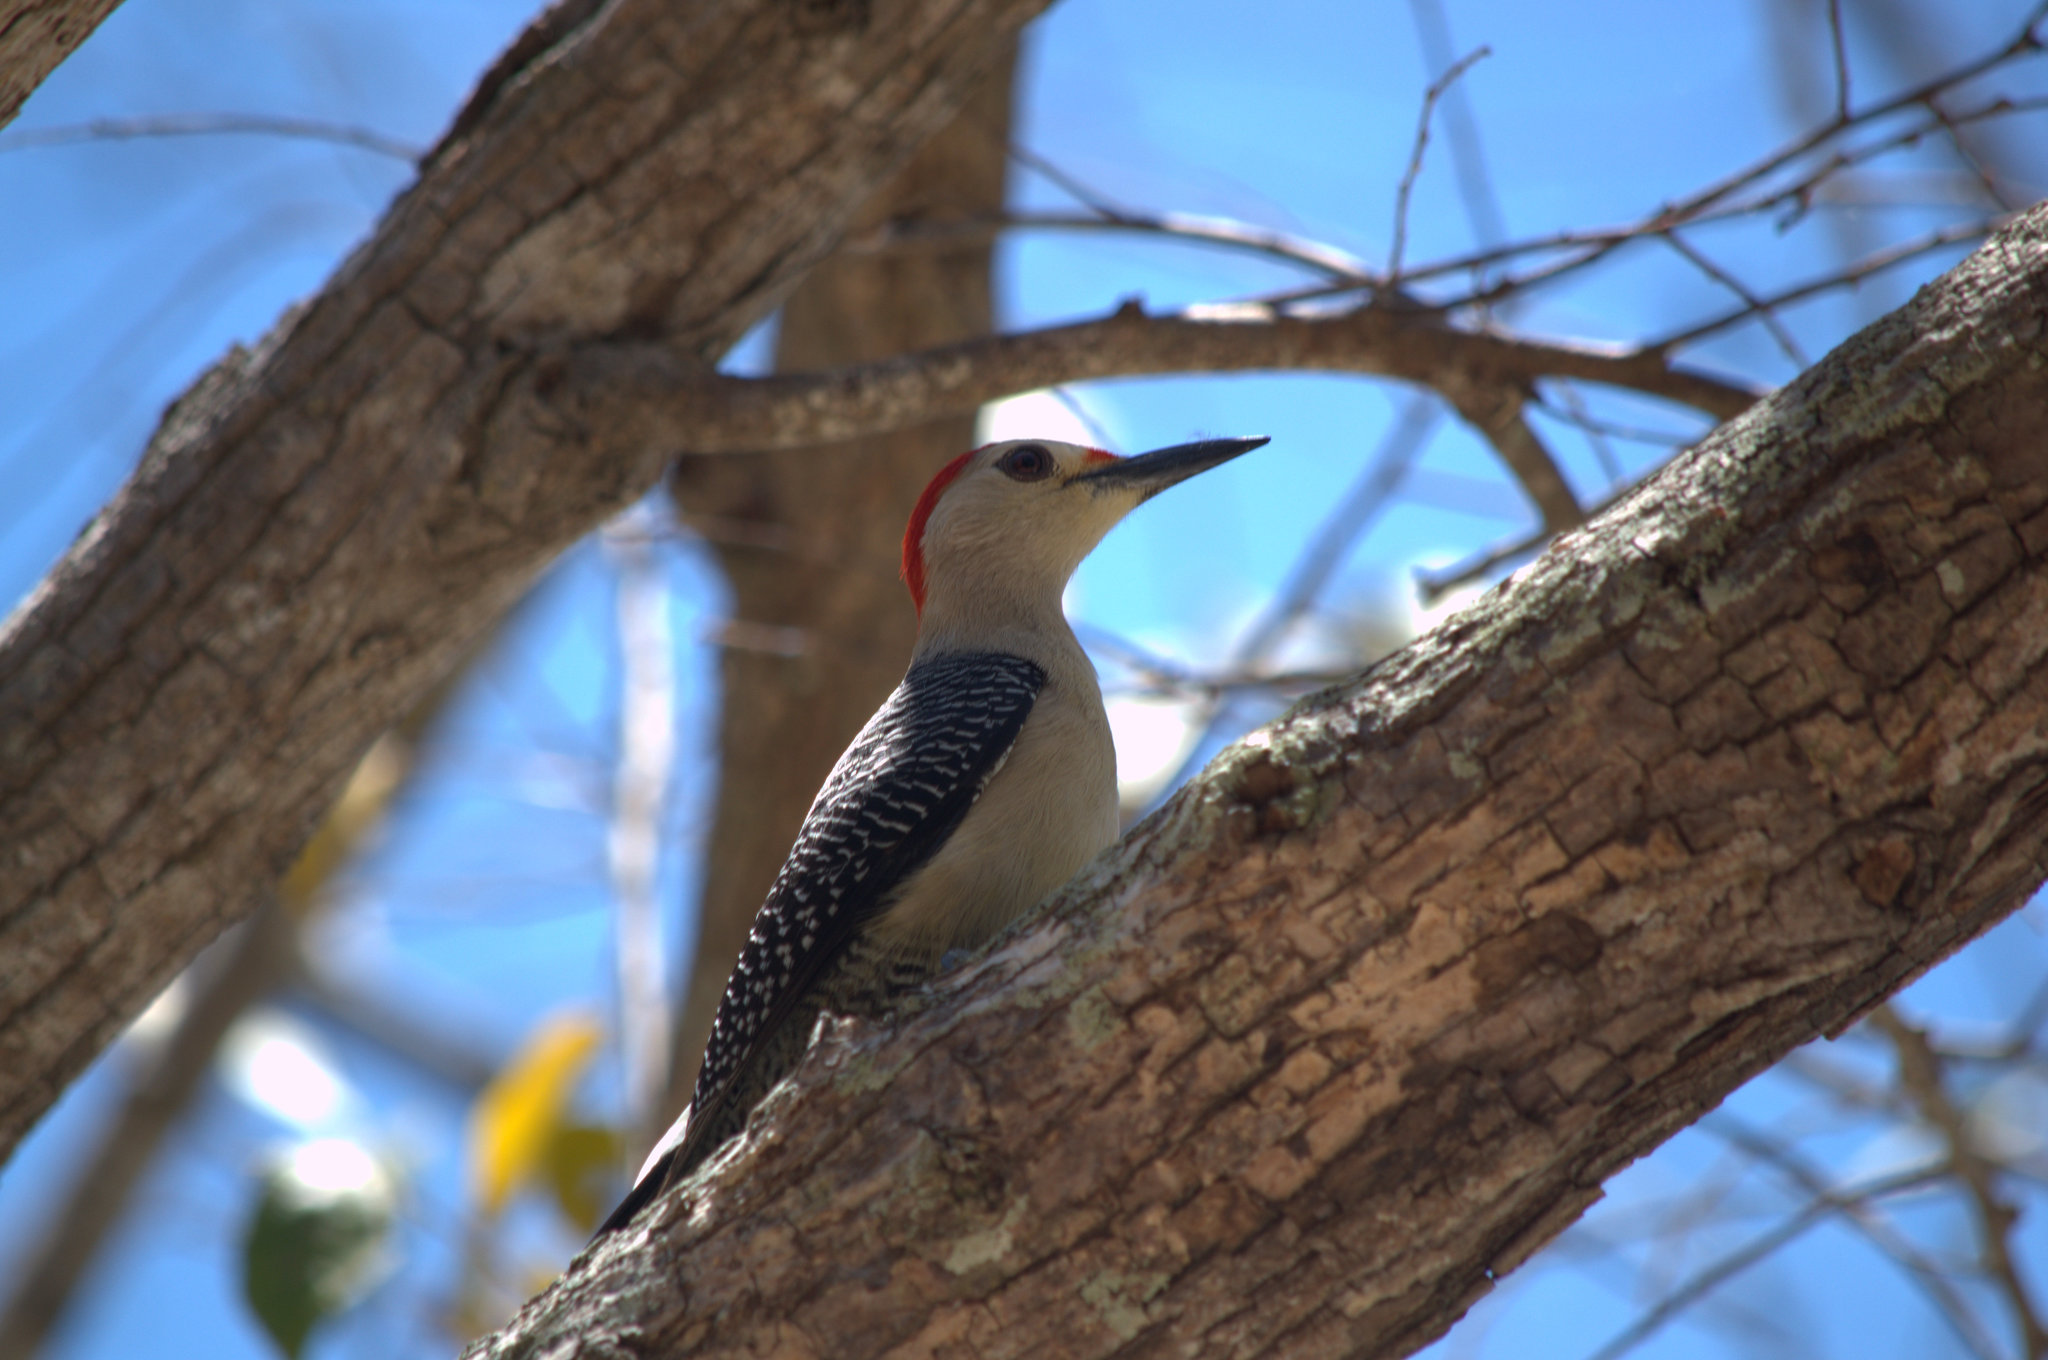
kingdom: Animalia
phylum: Chordata
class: Aves
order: Piciformes
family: Picidae
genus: Melanerpes
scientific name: Melanerpes aurifrons
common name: Golden-fronted woodpecker
